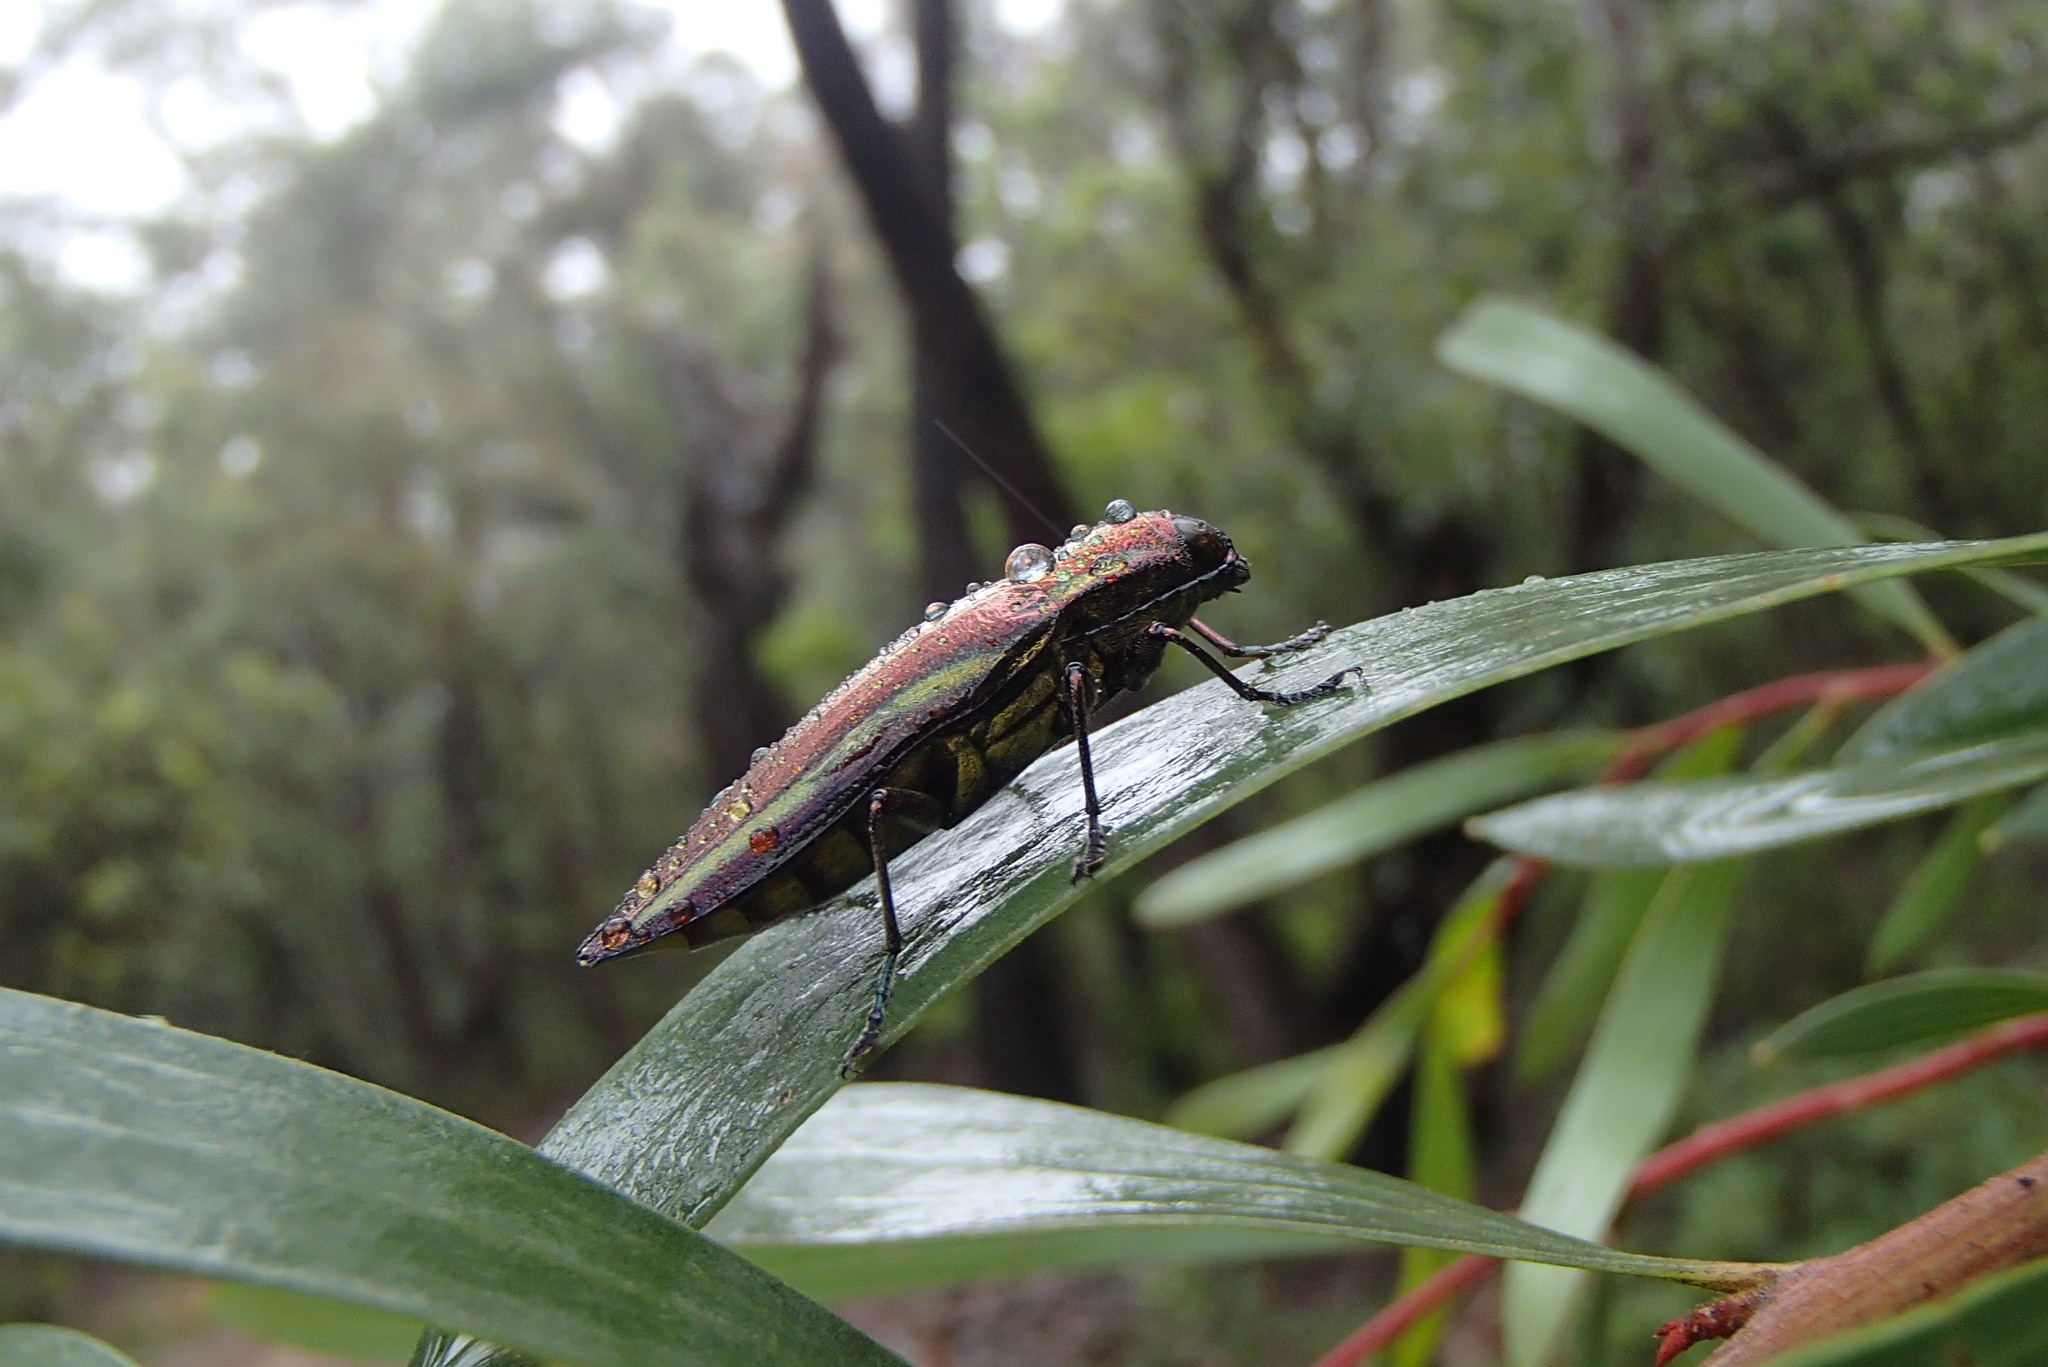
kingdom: Animalia
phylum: Arthropoda
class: Insecta
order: Coleoptera
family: Buprestidae
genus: Iridotaenia
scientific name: Iridotaenia
